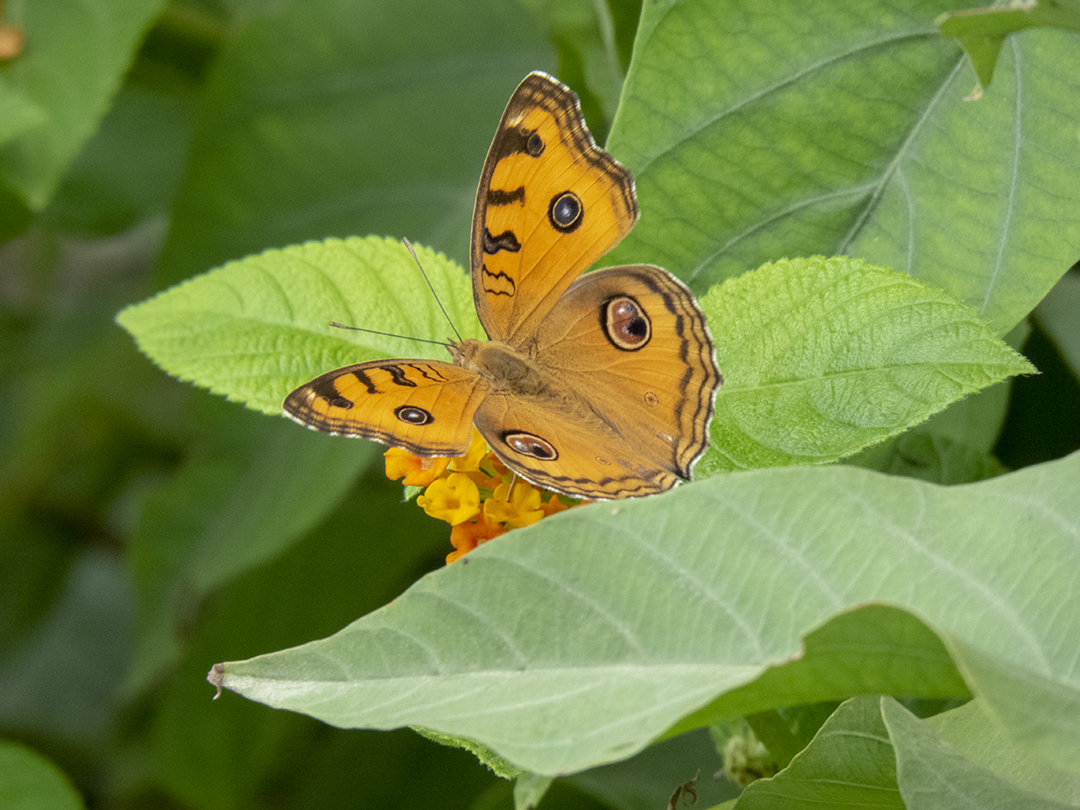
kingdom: Animalia
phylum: Arthropoda
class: Insecta
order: Lepidoptera
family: Nymphalidae
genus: Junonia
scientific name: Junonia almana
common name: Peacock pansy
